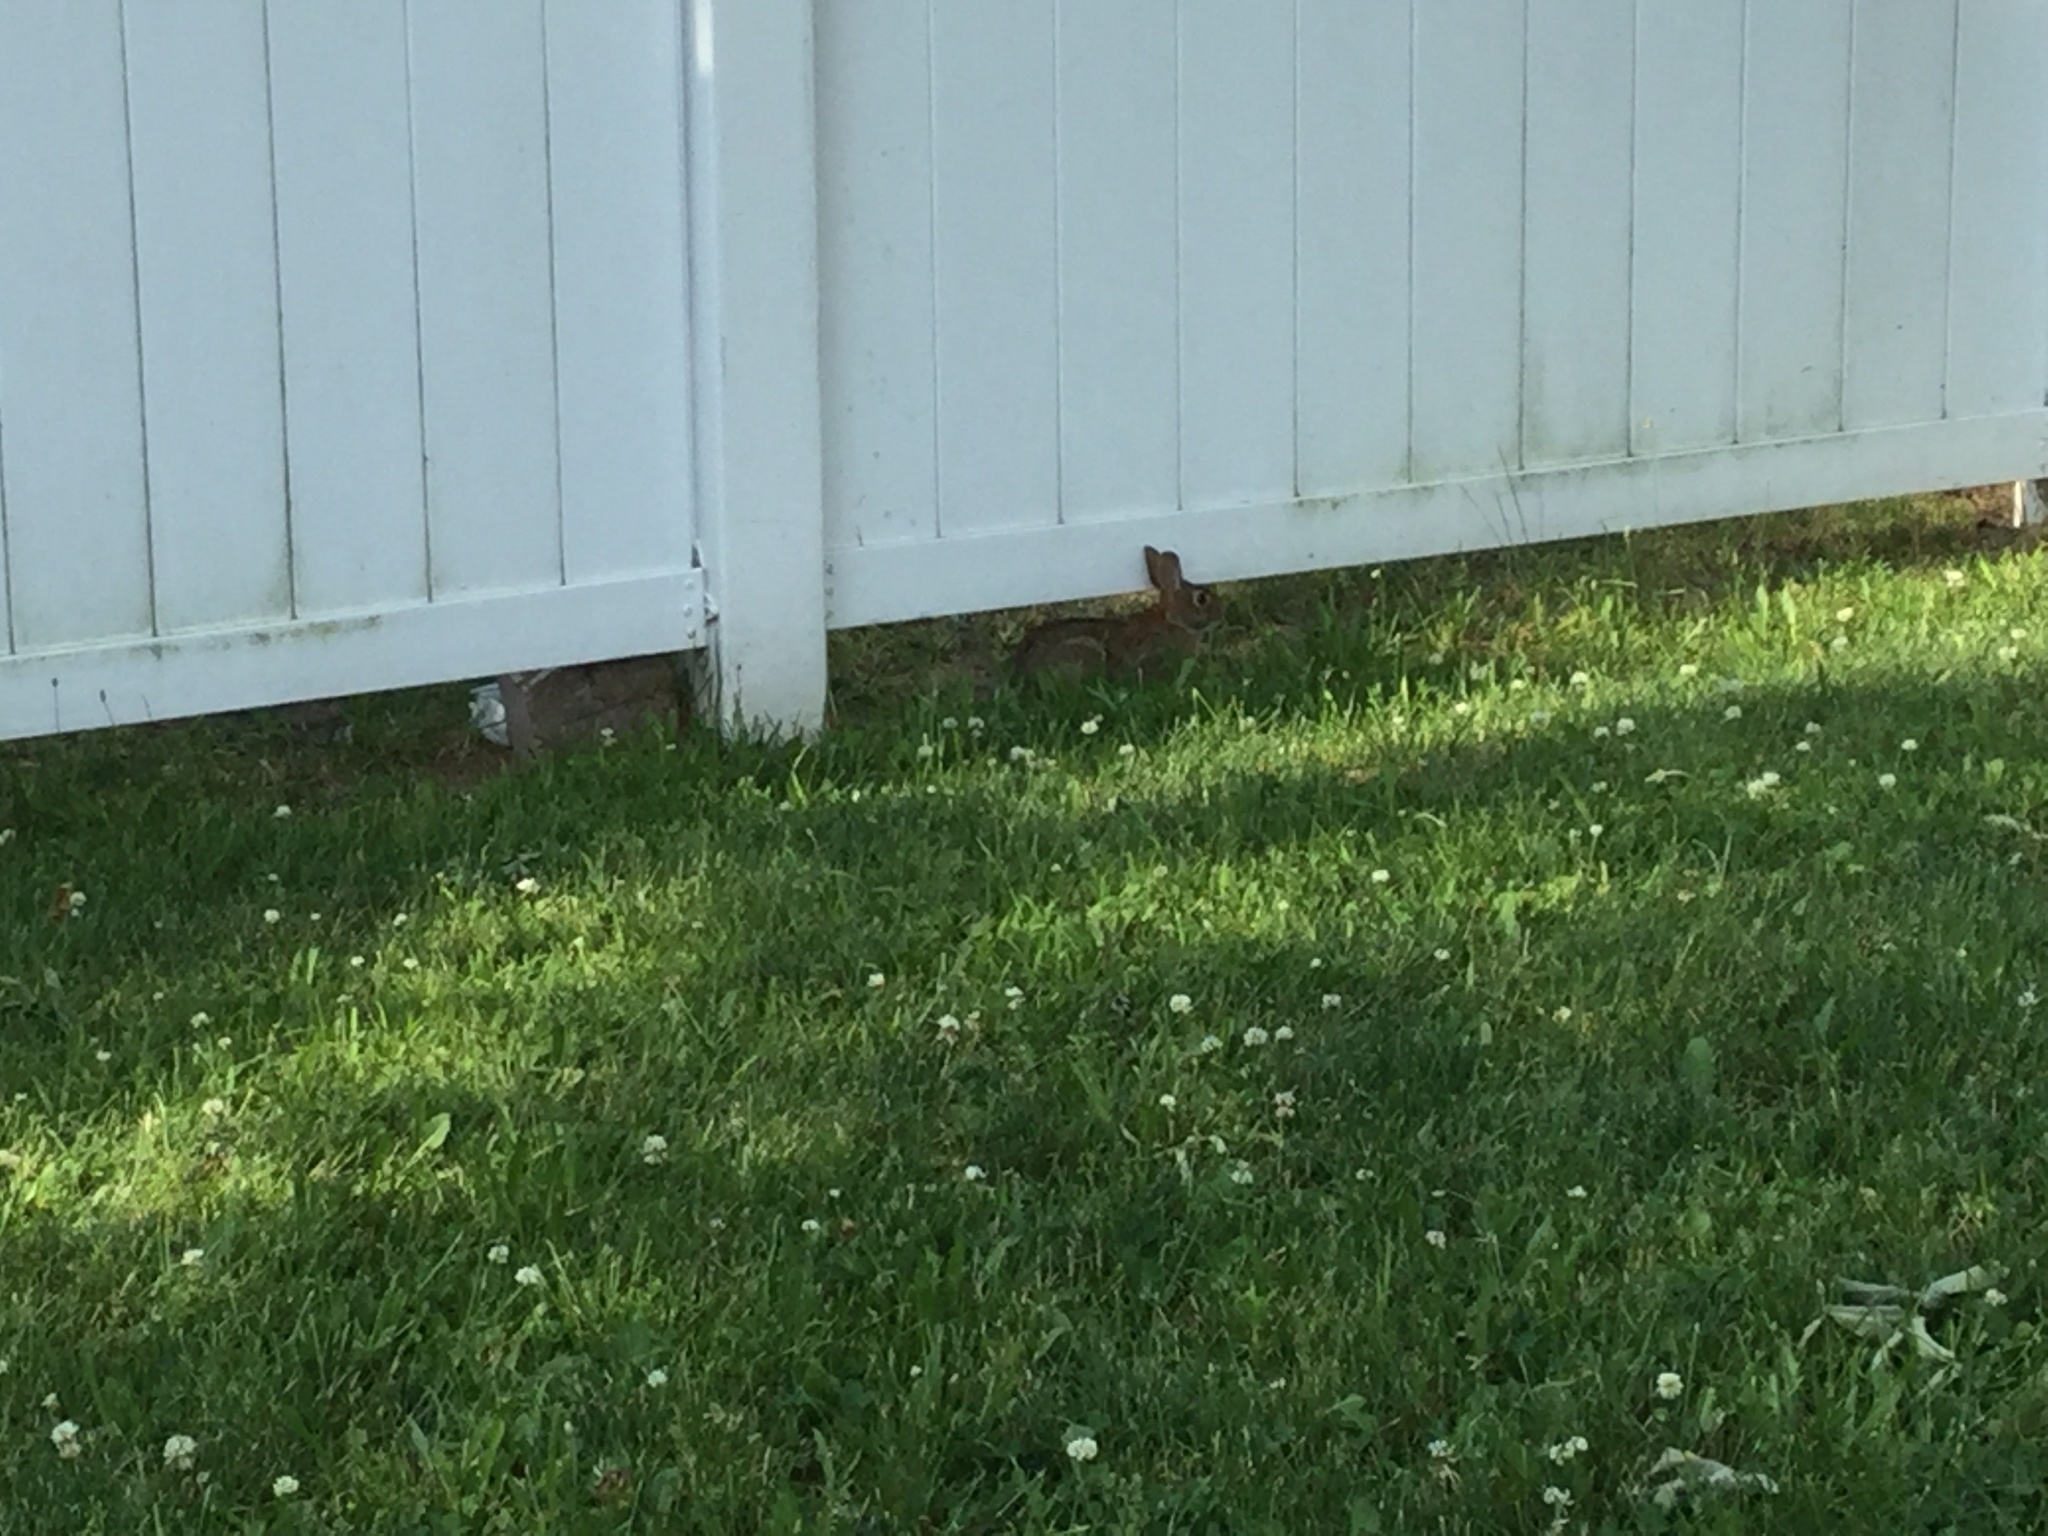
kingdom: Animalia
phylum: Chordata
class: Mammalia
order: Lagomorpha
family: Leporidae
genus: Sylvilagus
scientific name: Sylvilagus floridanus
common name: Eastern cottontail
